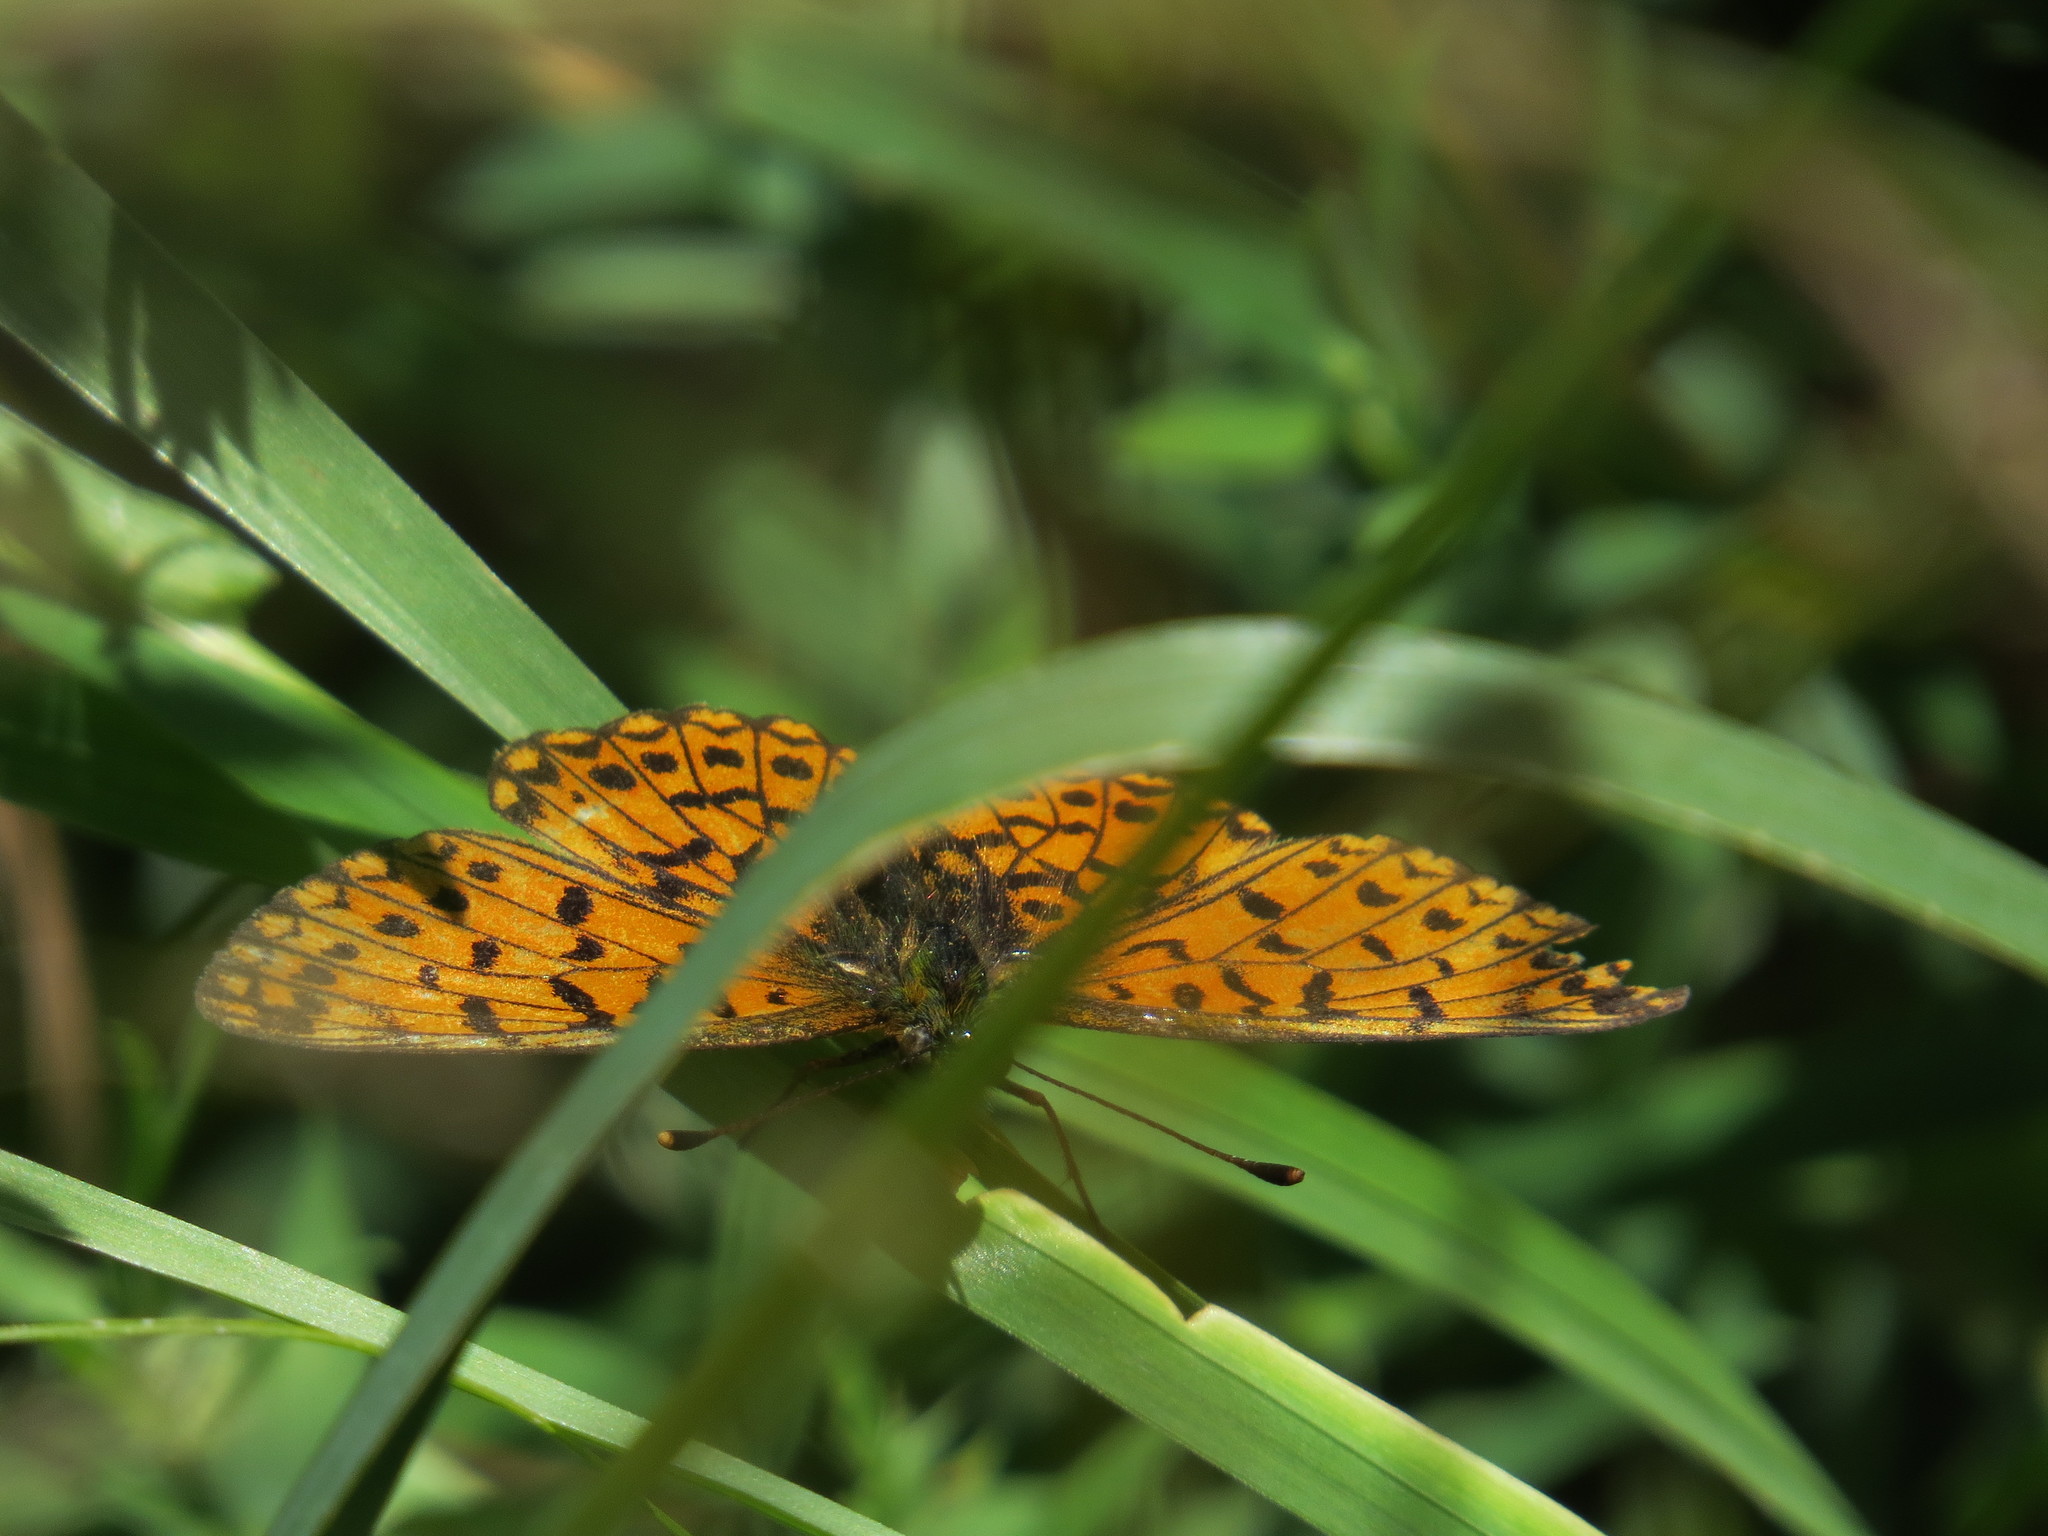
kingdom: Animalia
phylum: Arthropoda
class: Insecta
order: Lepidoptera
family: Nymphalidae
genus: Boloria
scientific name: Boloria selene
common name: Small pearl-bordered fritillary
